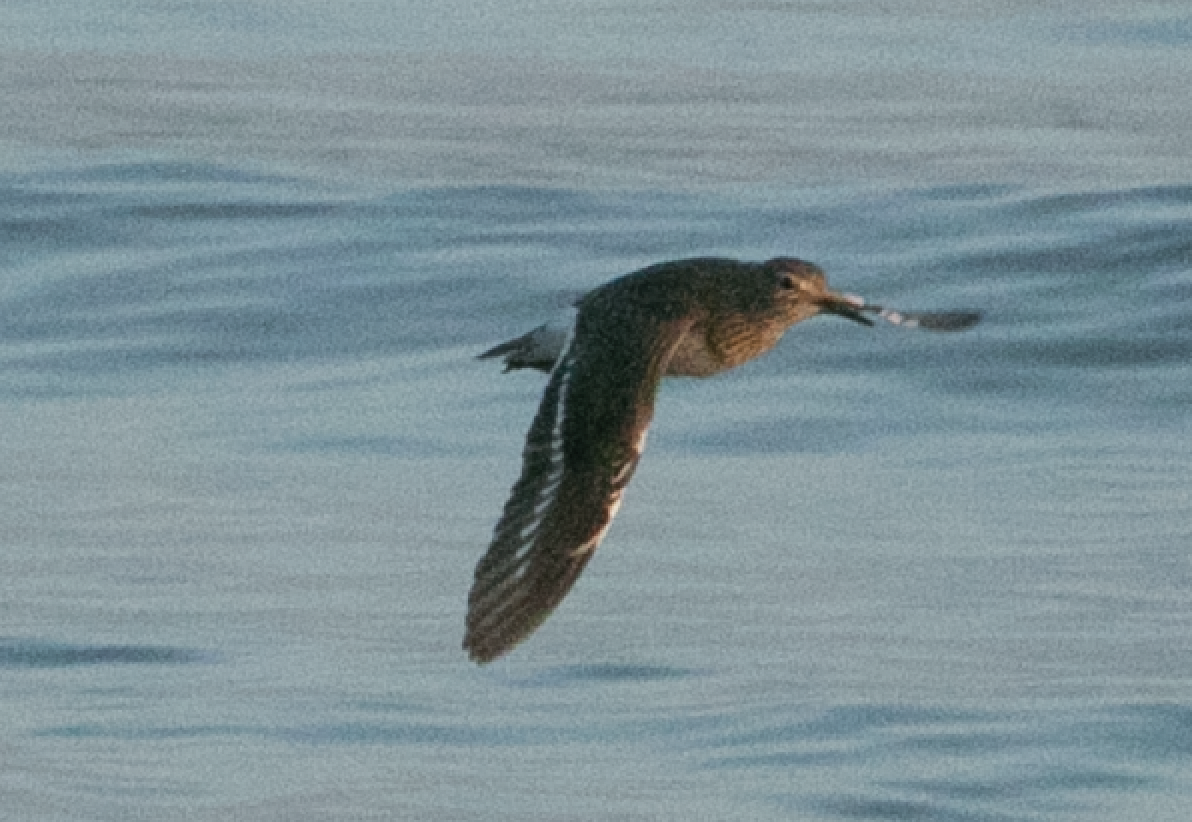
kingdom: Animalia
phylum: Chordata
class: Aves
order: Charadriiformes
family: Scolopacidae
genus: Actitis
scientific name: Actitis hypoleucos
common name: Common sandpiper
